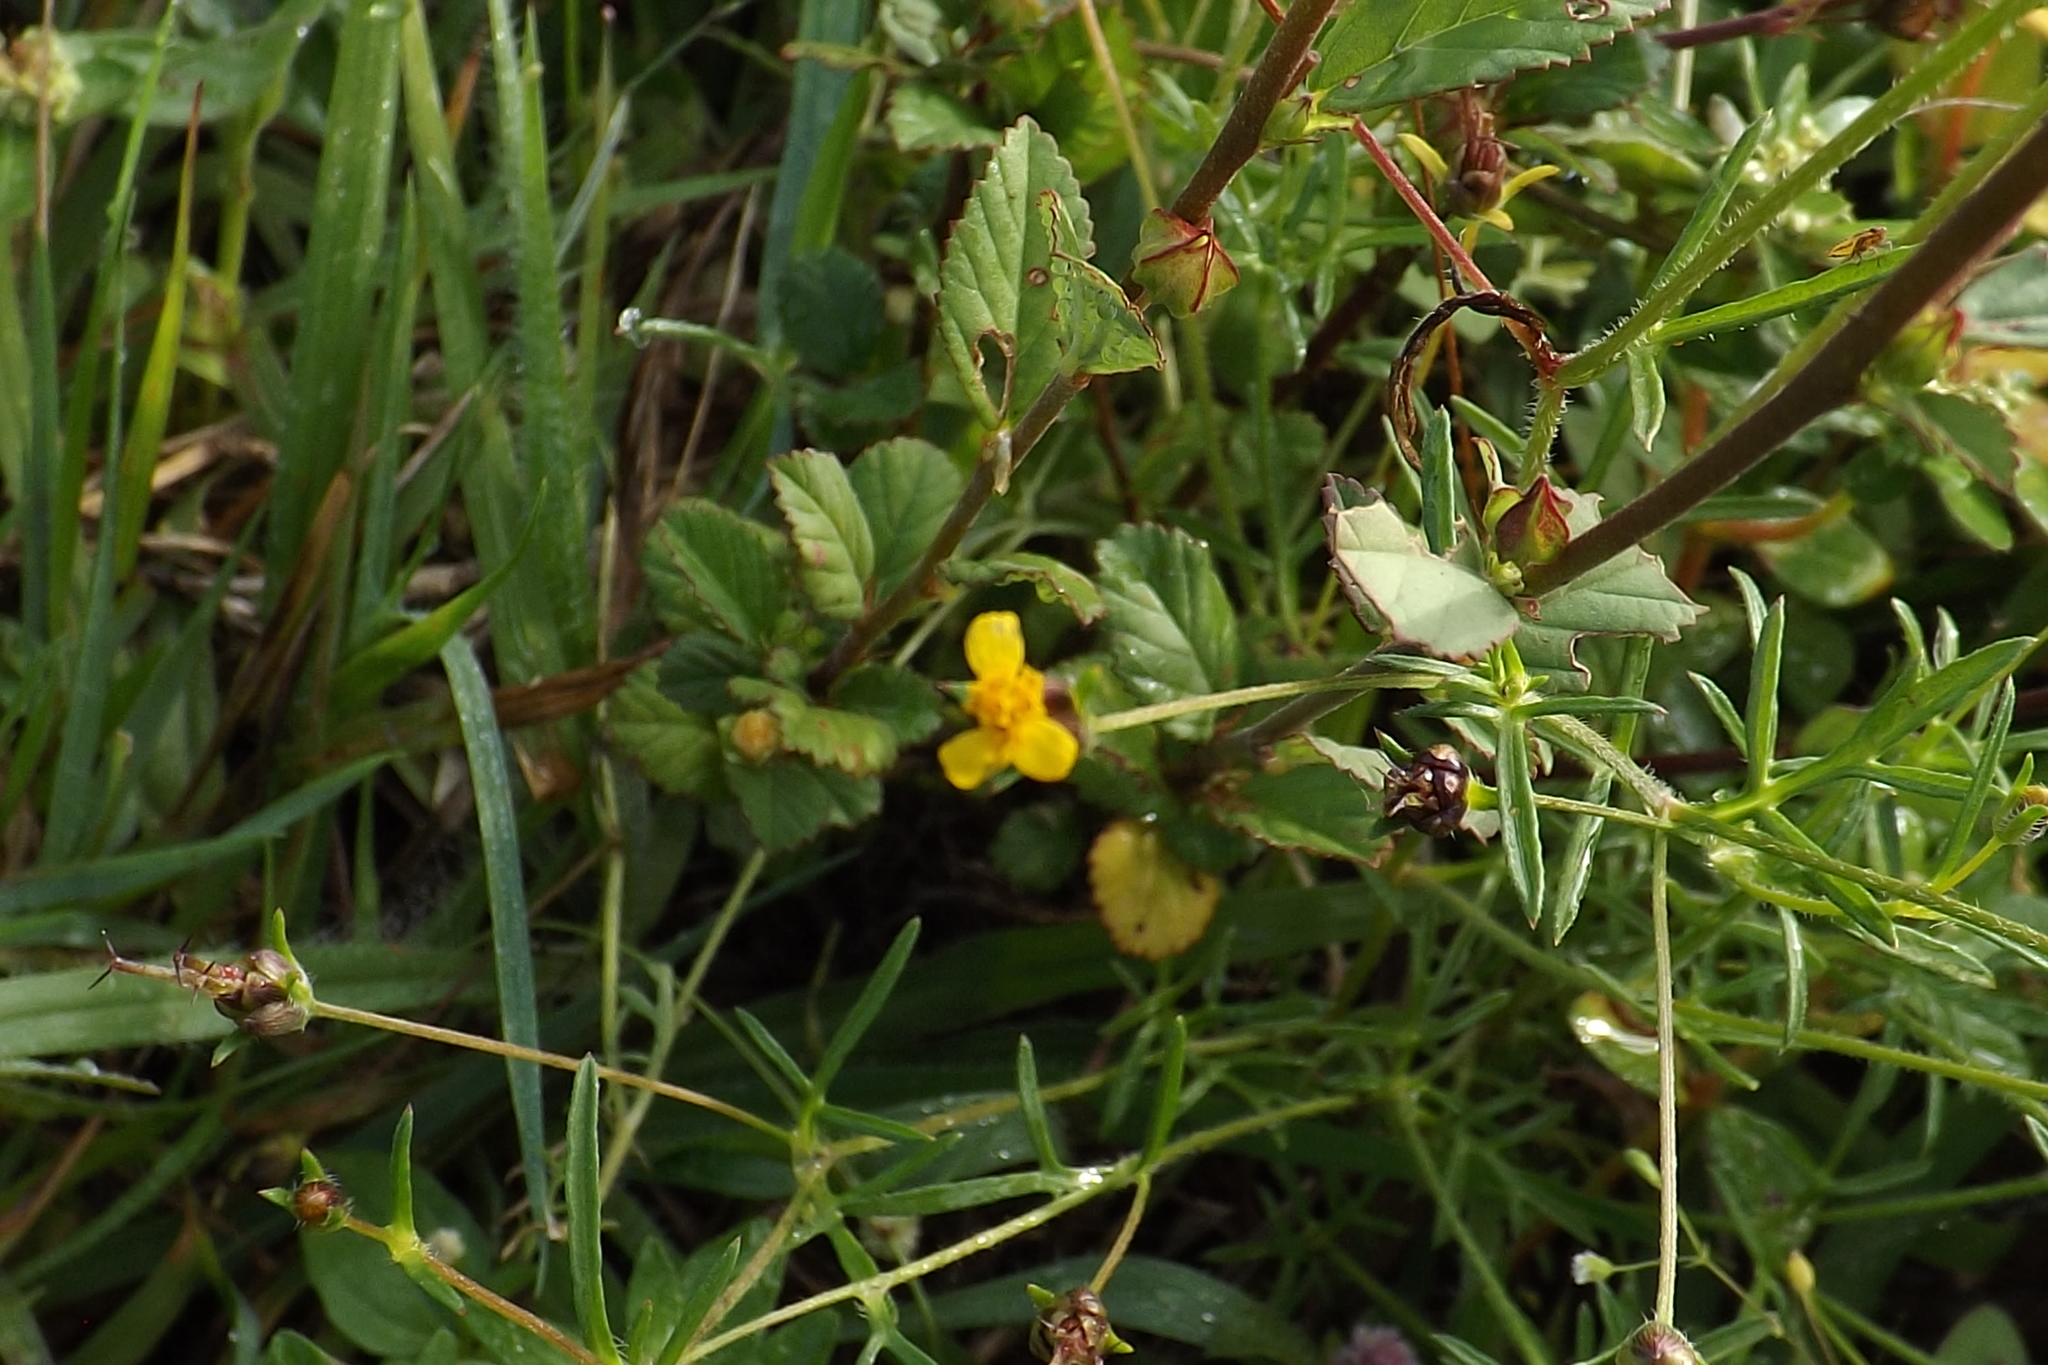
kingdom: Plantae
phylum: Tracheophyta
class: Magnoliopsida
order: Asterales
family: Asteraceae
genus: Heterosperma
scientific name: Heterosperma pinnatum
